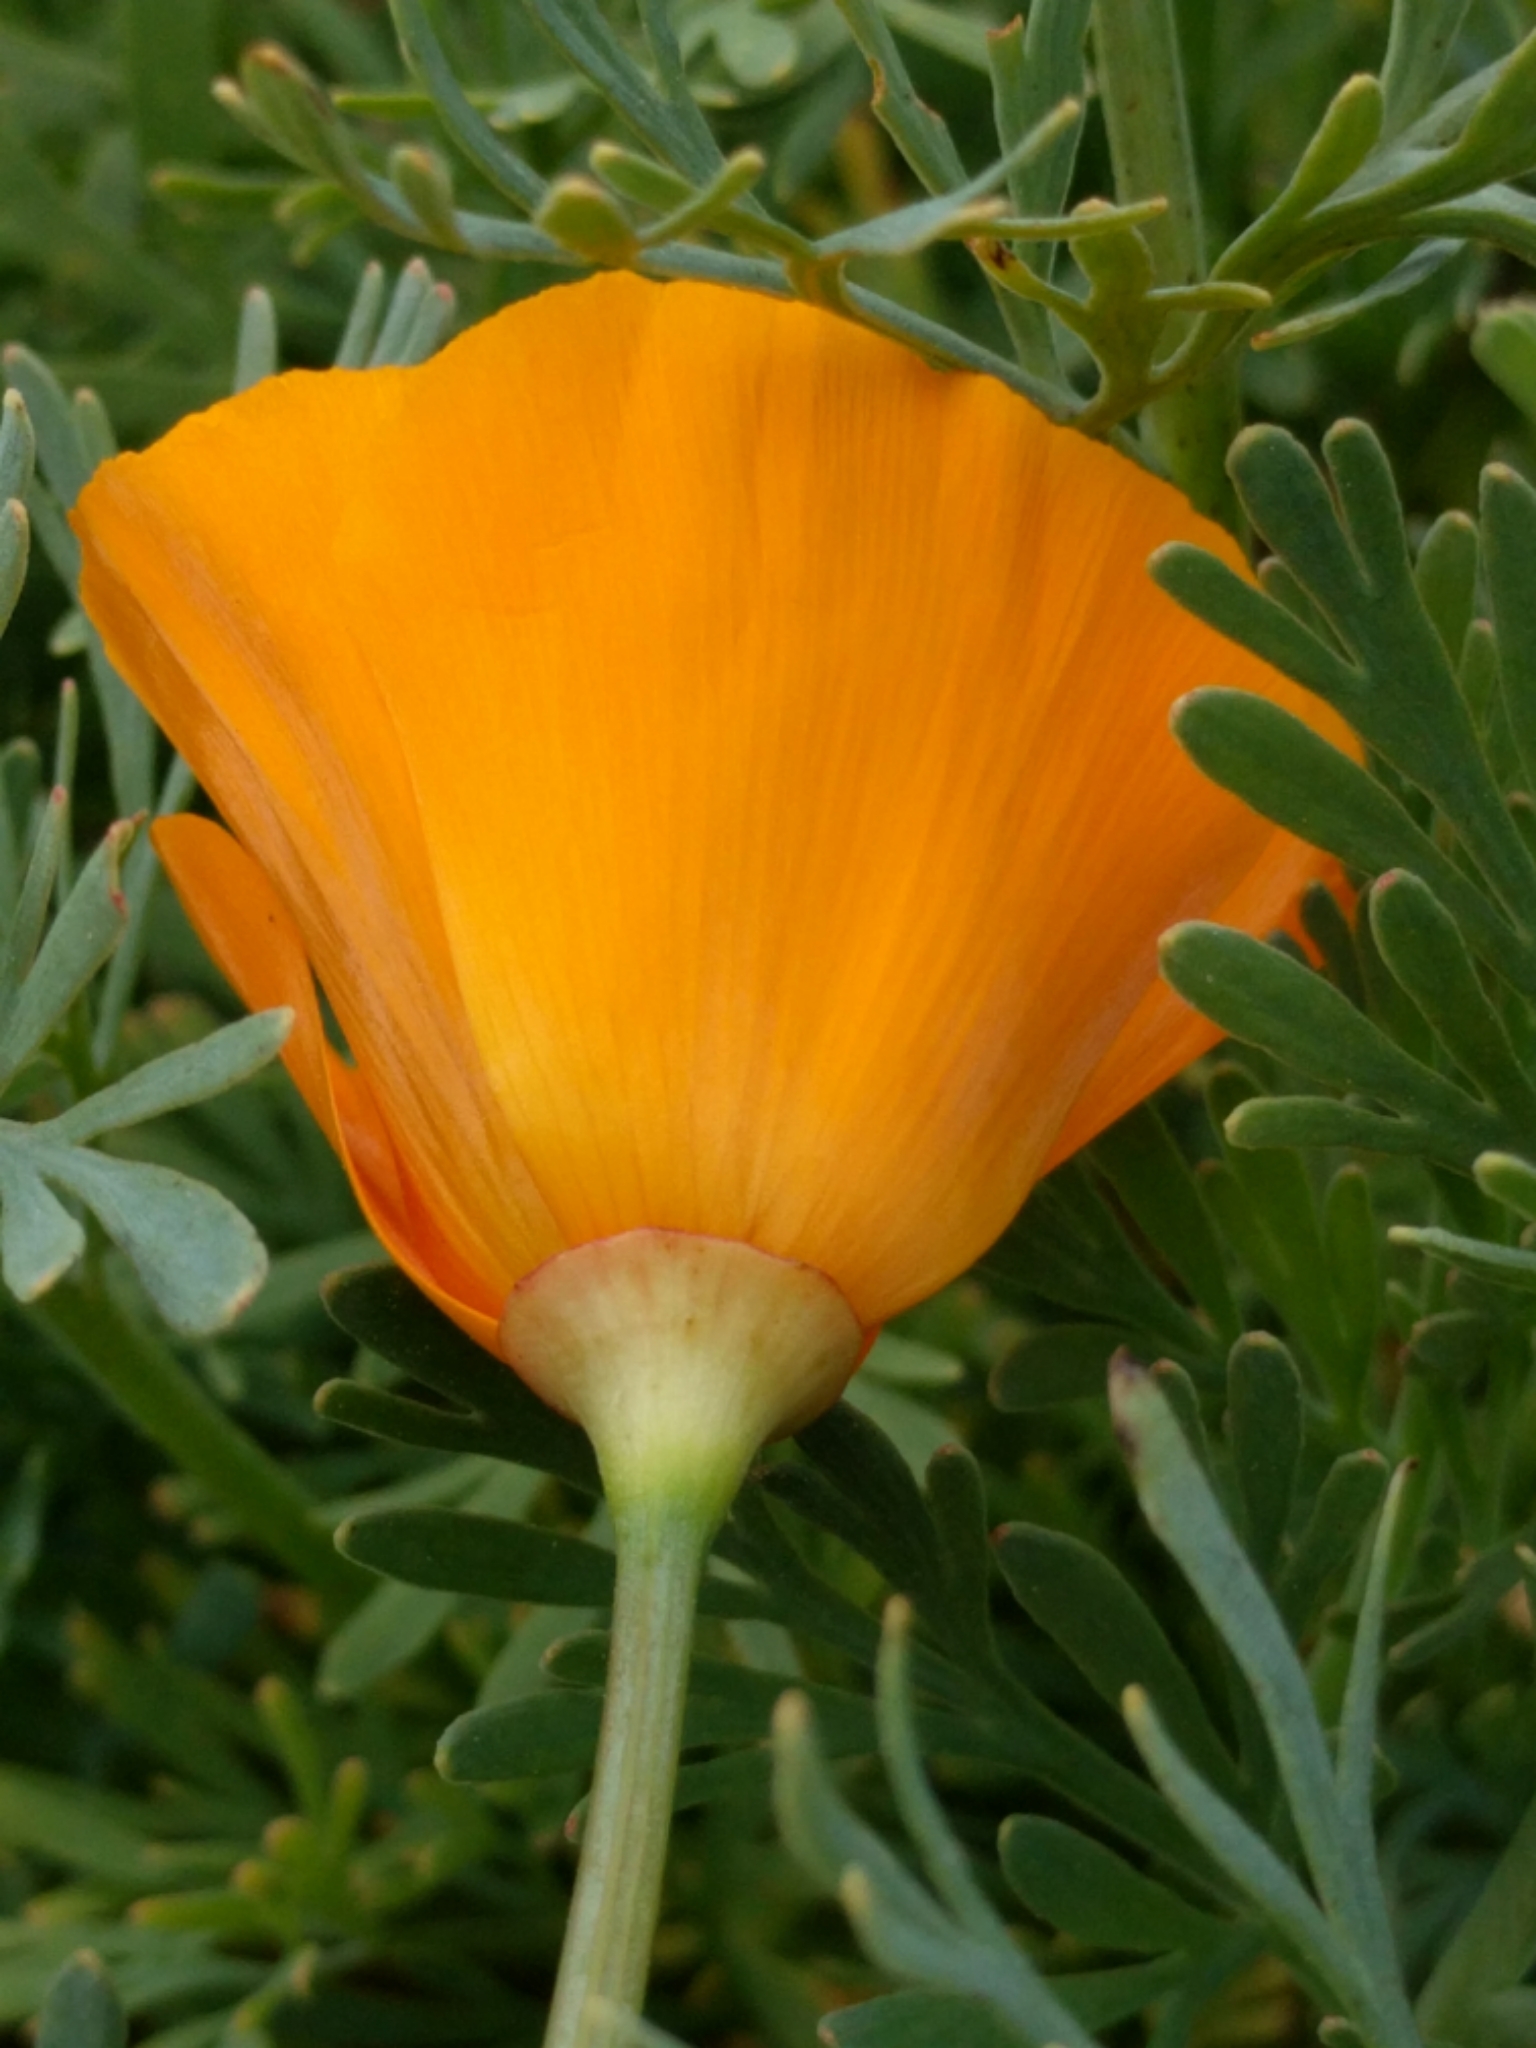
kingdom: Plantae
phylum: Tracheophyta
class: Magnoliopsida
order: Ranunculales
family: Papaveraceae
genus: Eschscholzia
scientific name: Eschscholzia californica
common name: California poppy
